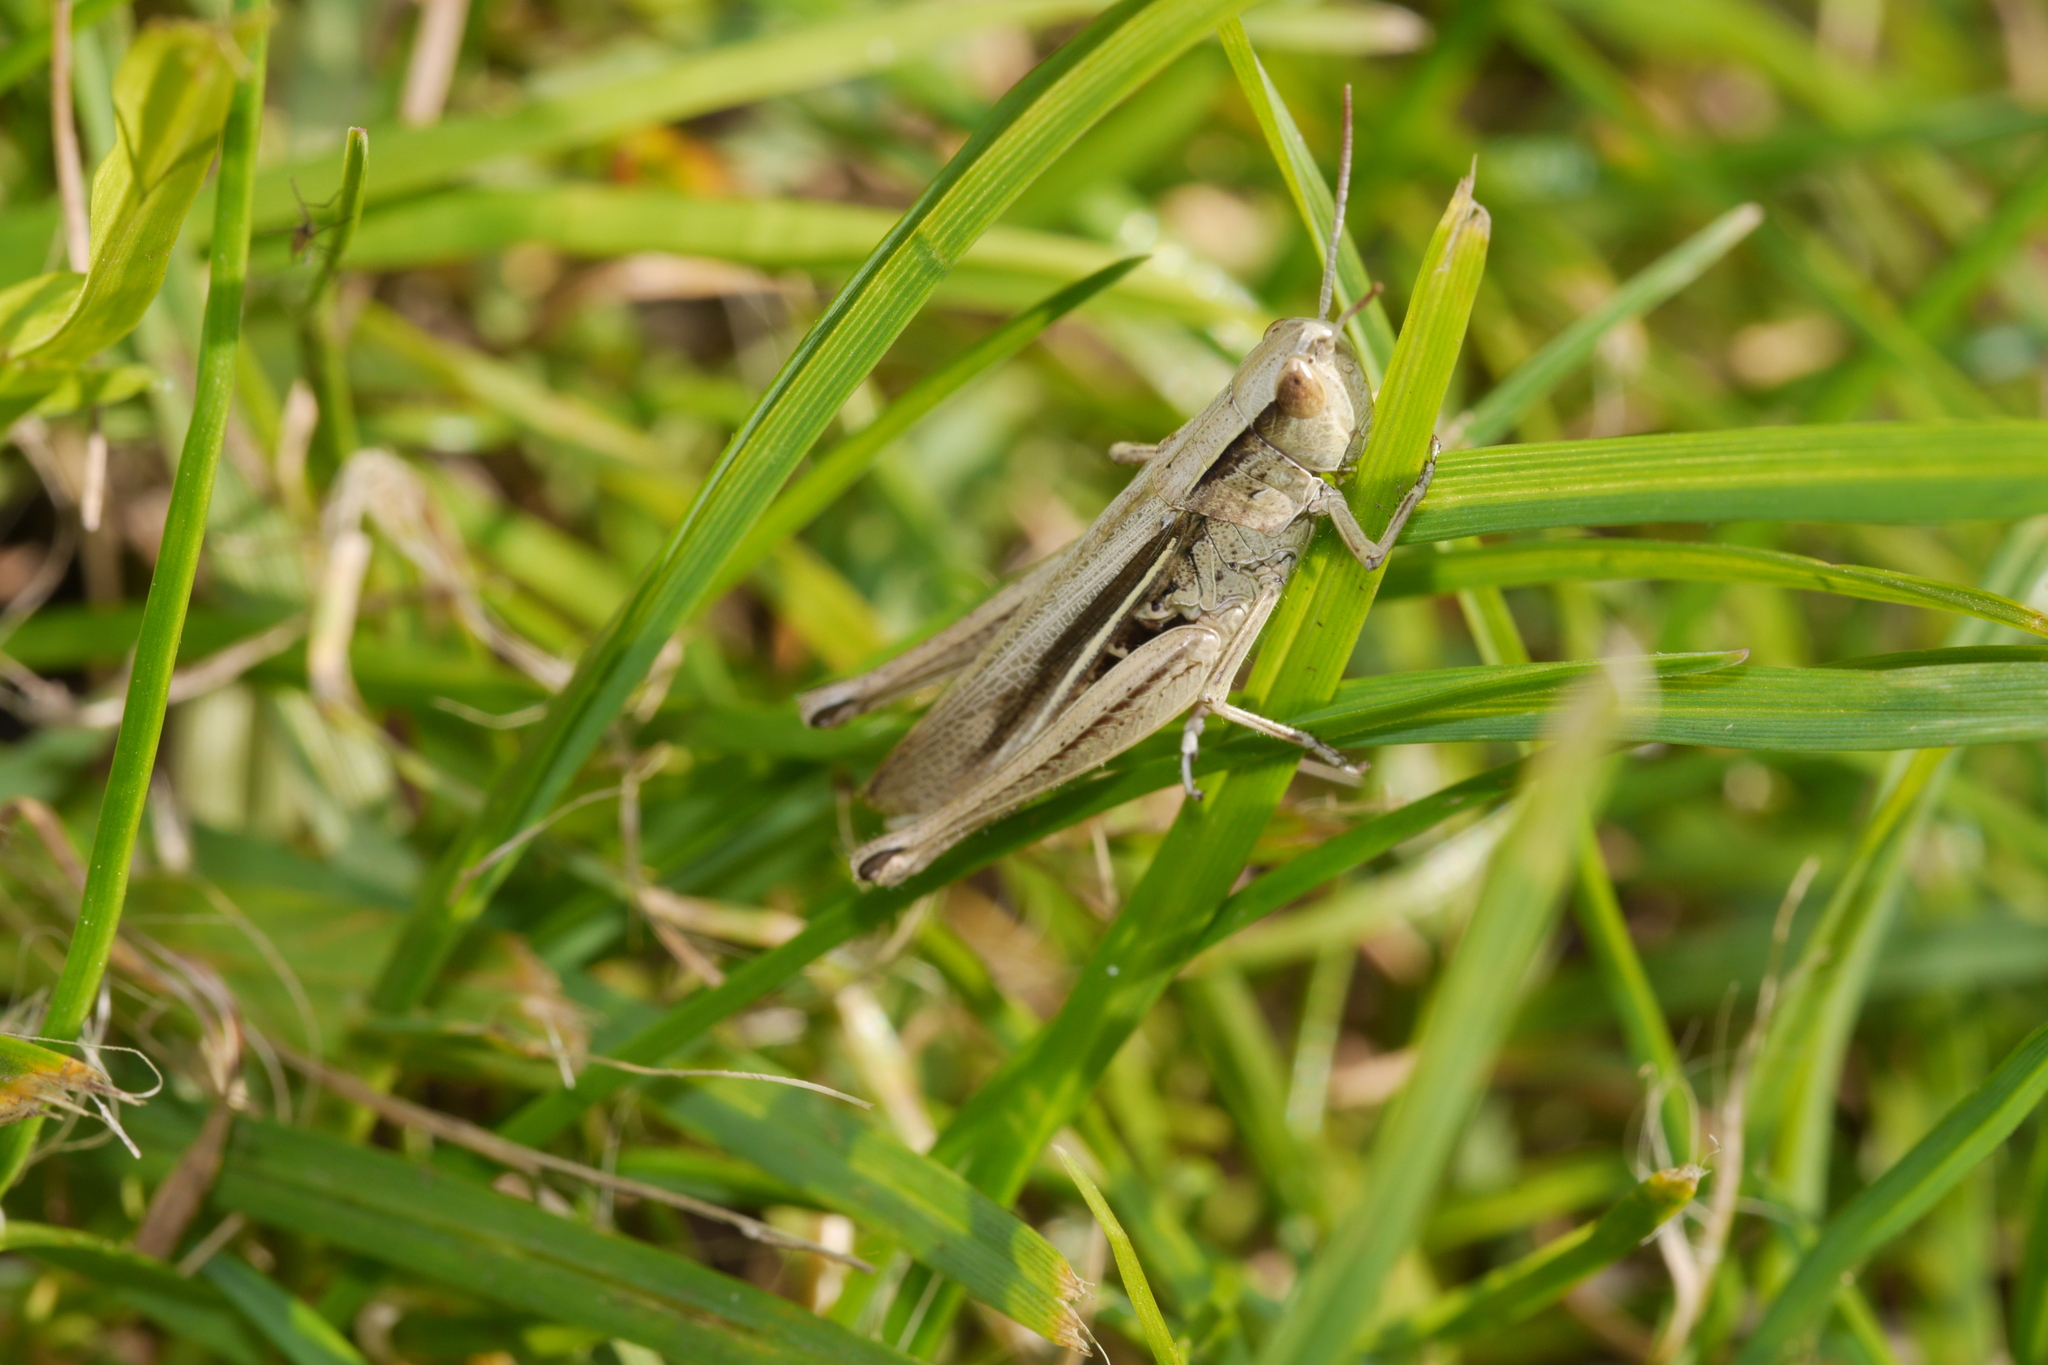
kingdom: Animalia
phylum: Arthropoda
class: Insecta
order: Orthoptera
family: Acrididae
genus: Chorthippus
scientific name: Chorthippus albomarginatus
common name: Lesser marsh grasshopper
